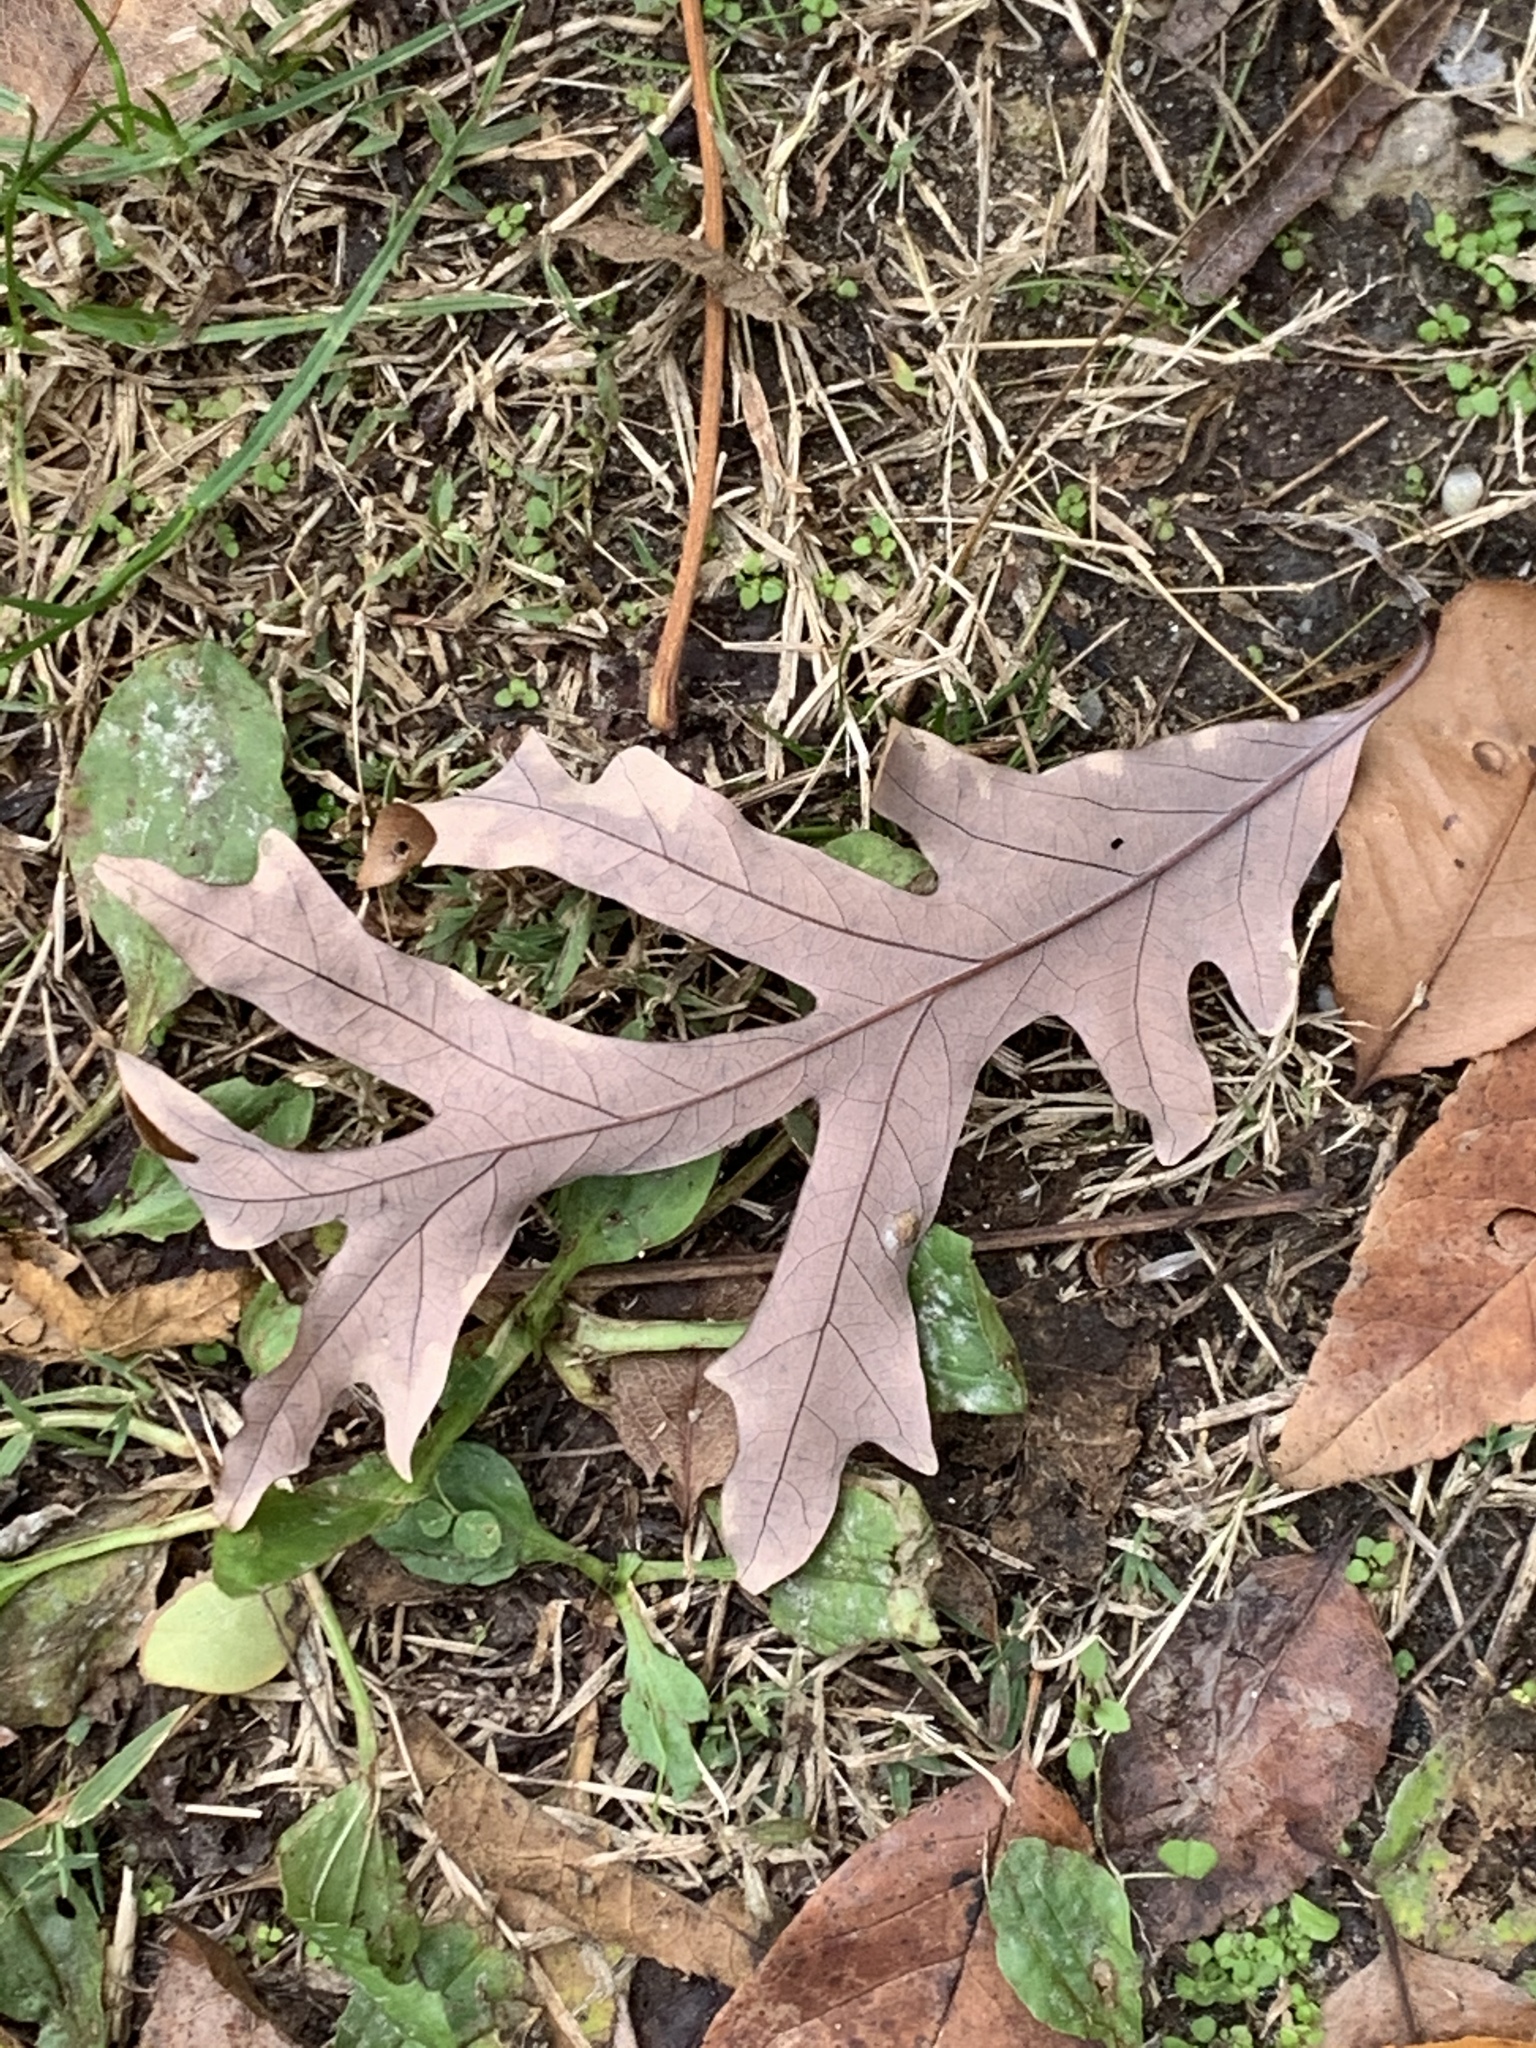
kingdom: Plantae
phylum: Tracheophyta
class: Magnoliopsida
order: Fagales
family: Fagaceae
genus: Quercus
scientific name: Quercus alba
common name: White oak
